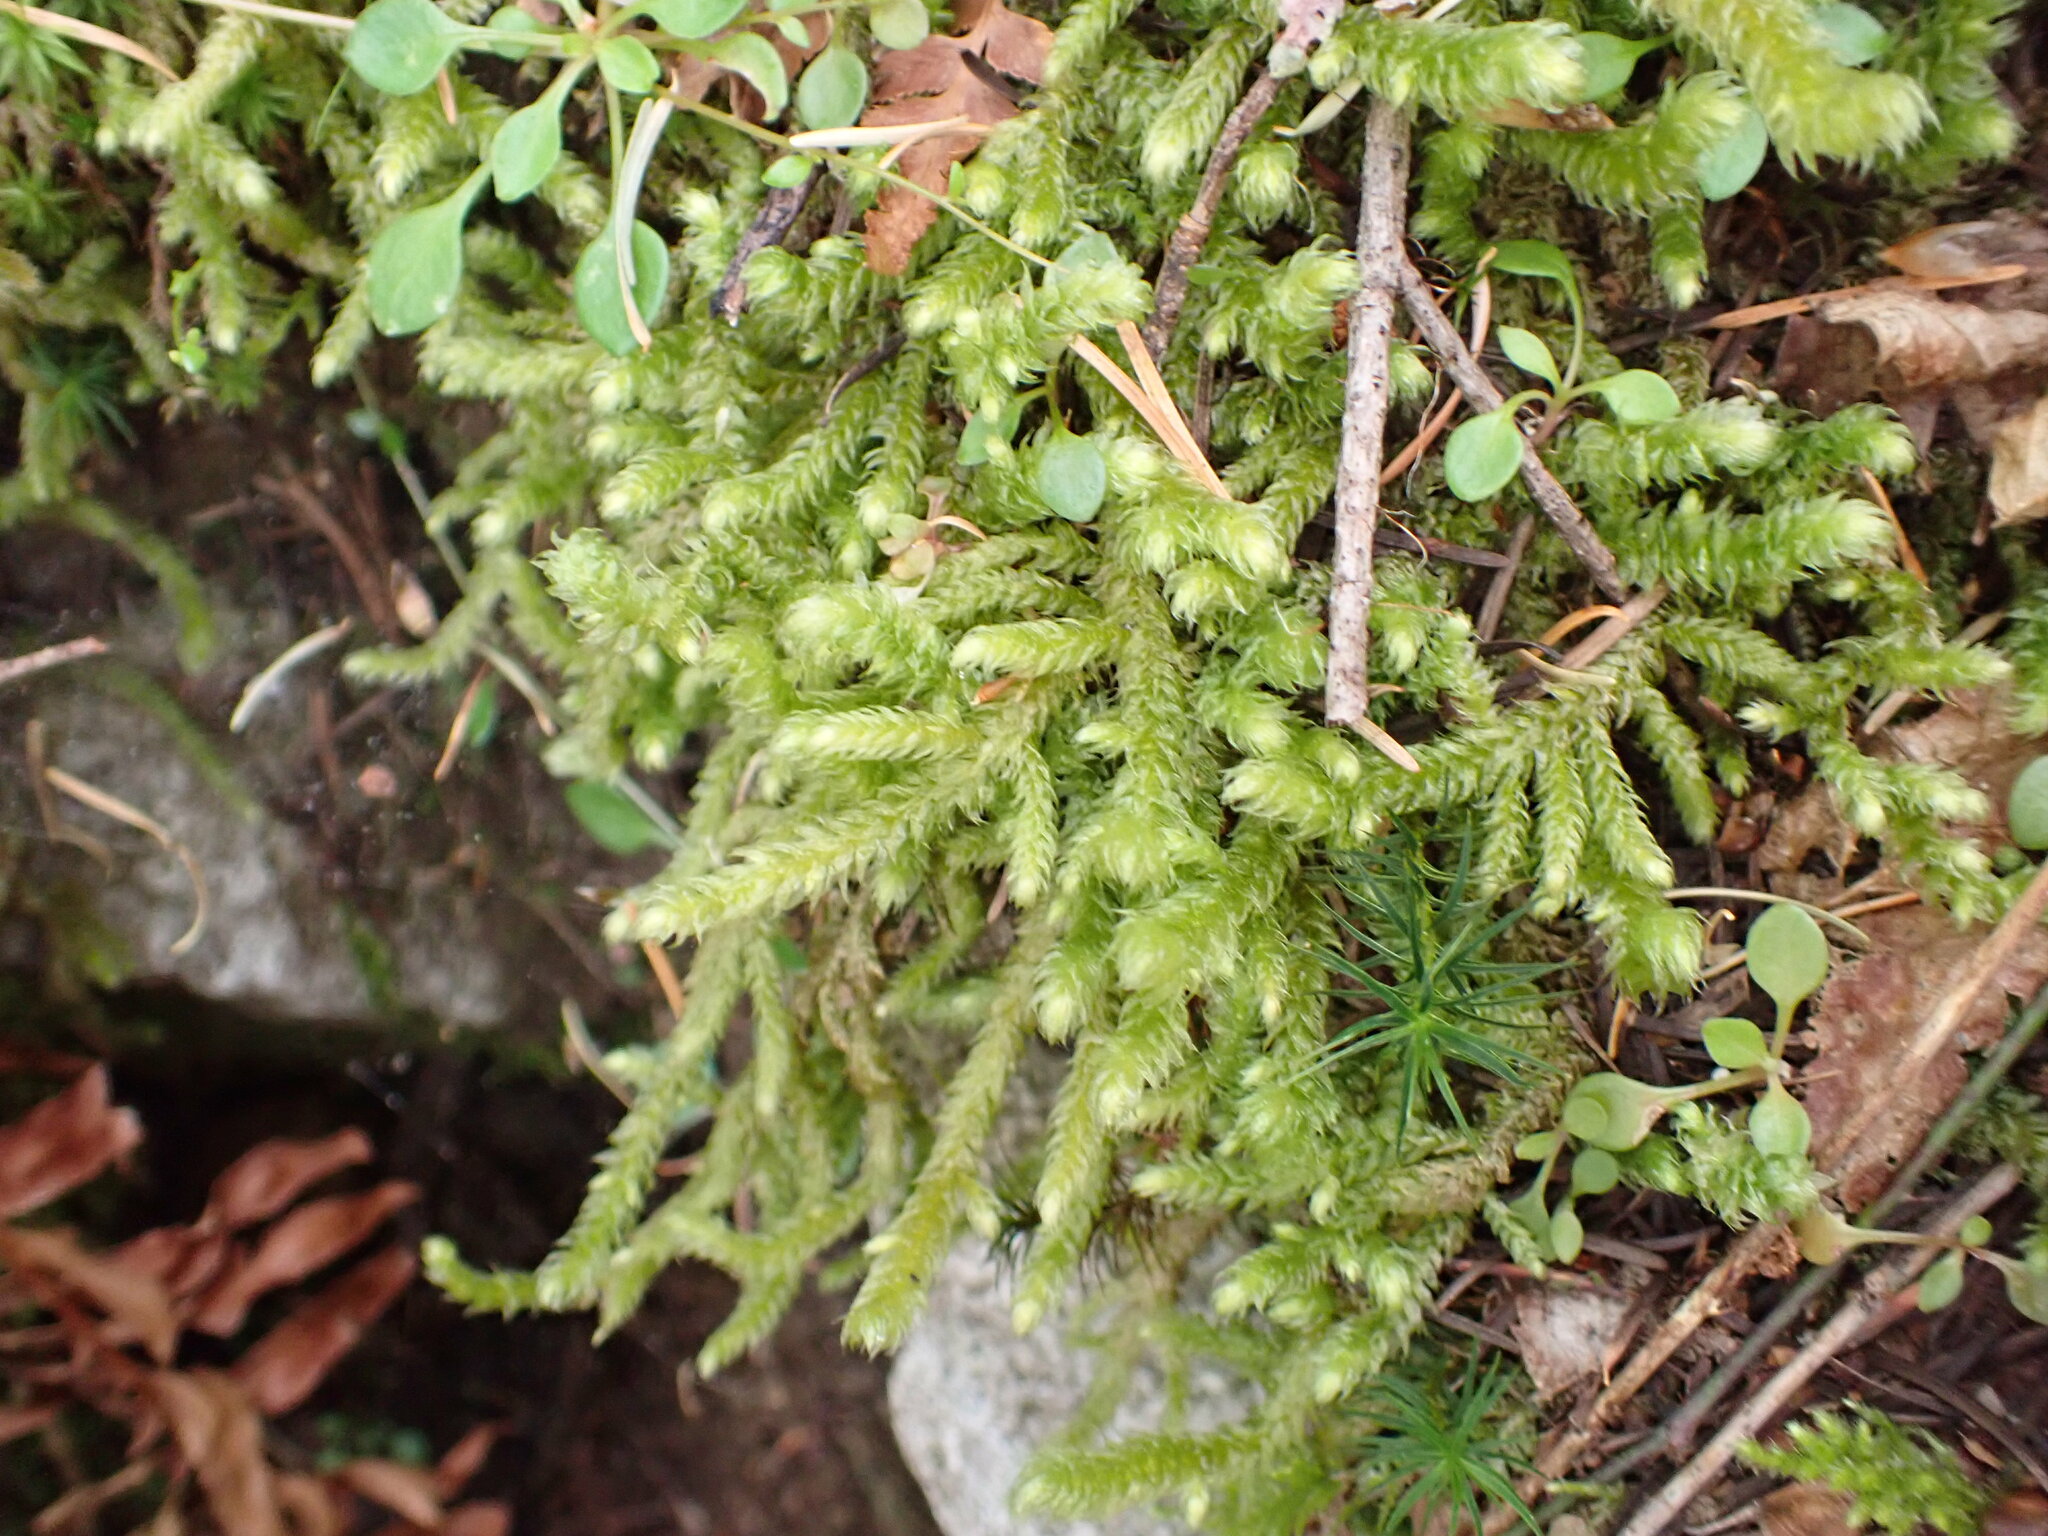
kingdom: Plantae
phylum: Bryophyta
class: Bryopsida
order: Hypnales
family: Hylocomiaceae
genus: Rhytidiopsis
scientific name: Rhytidiopsis robusta
